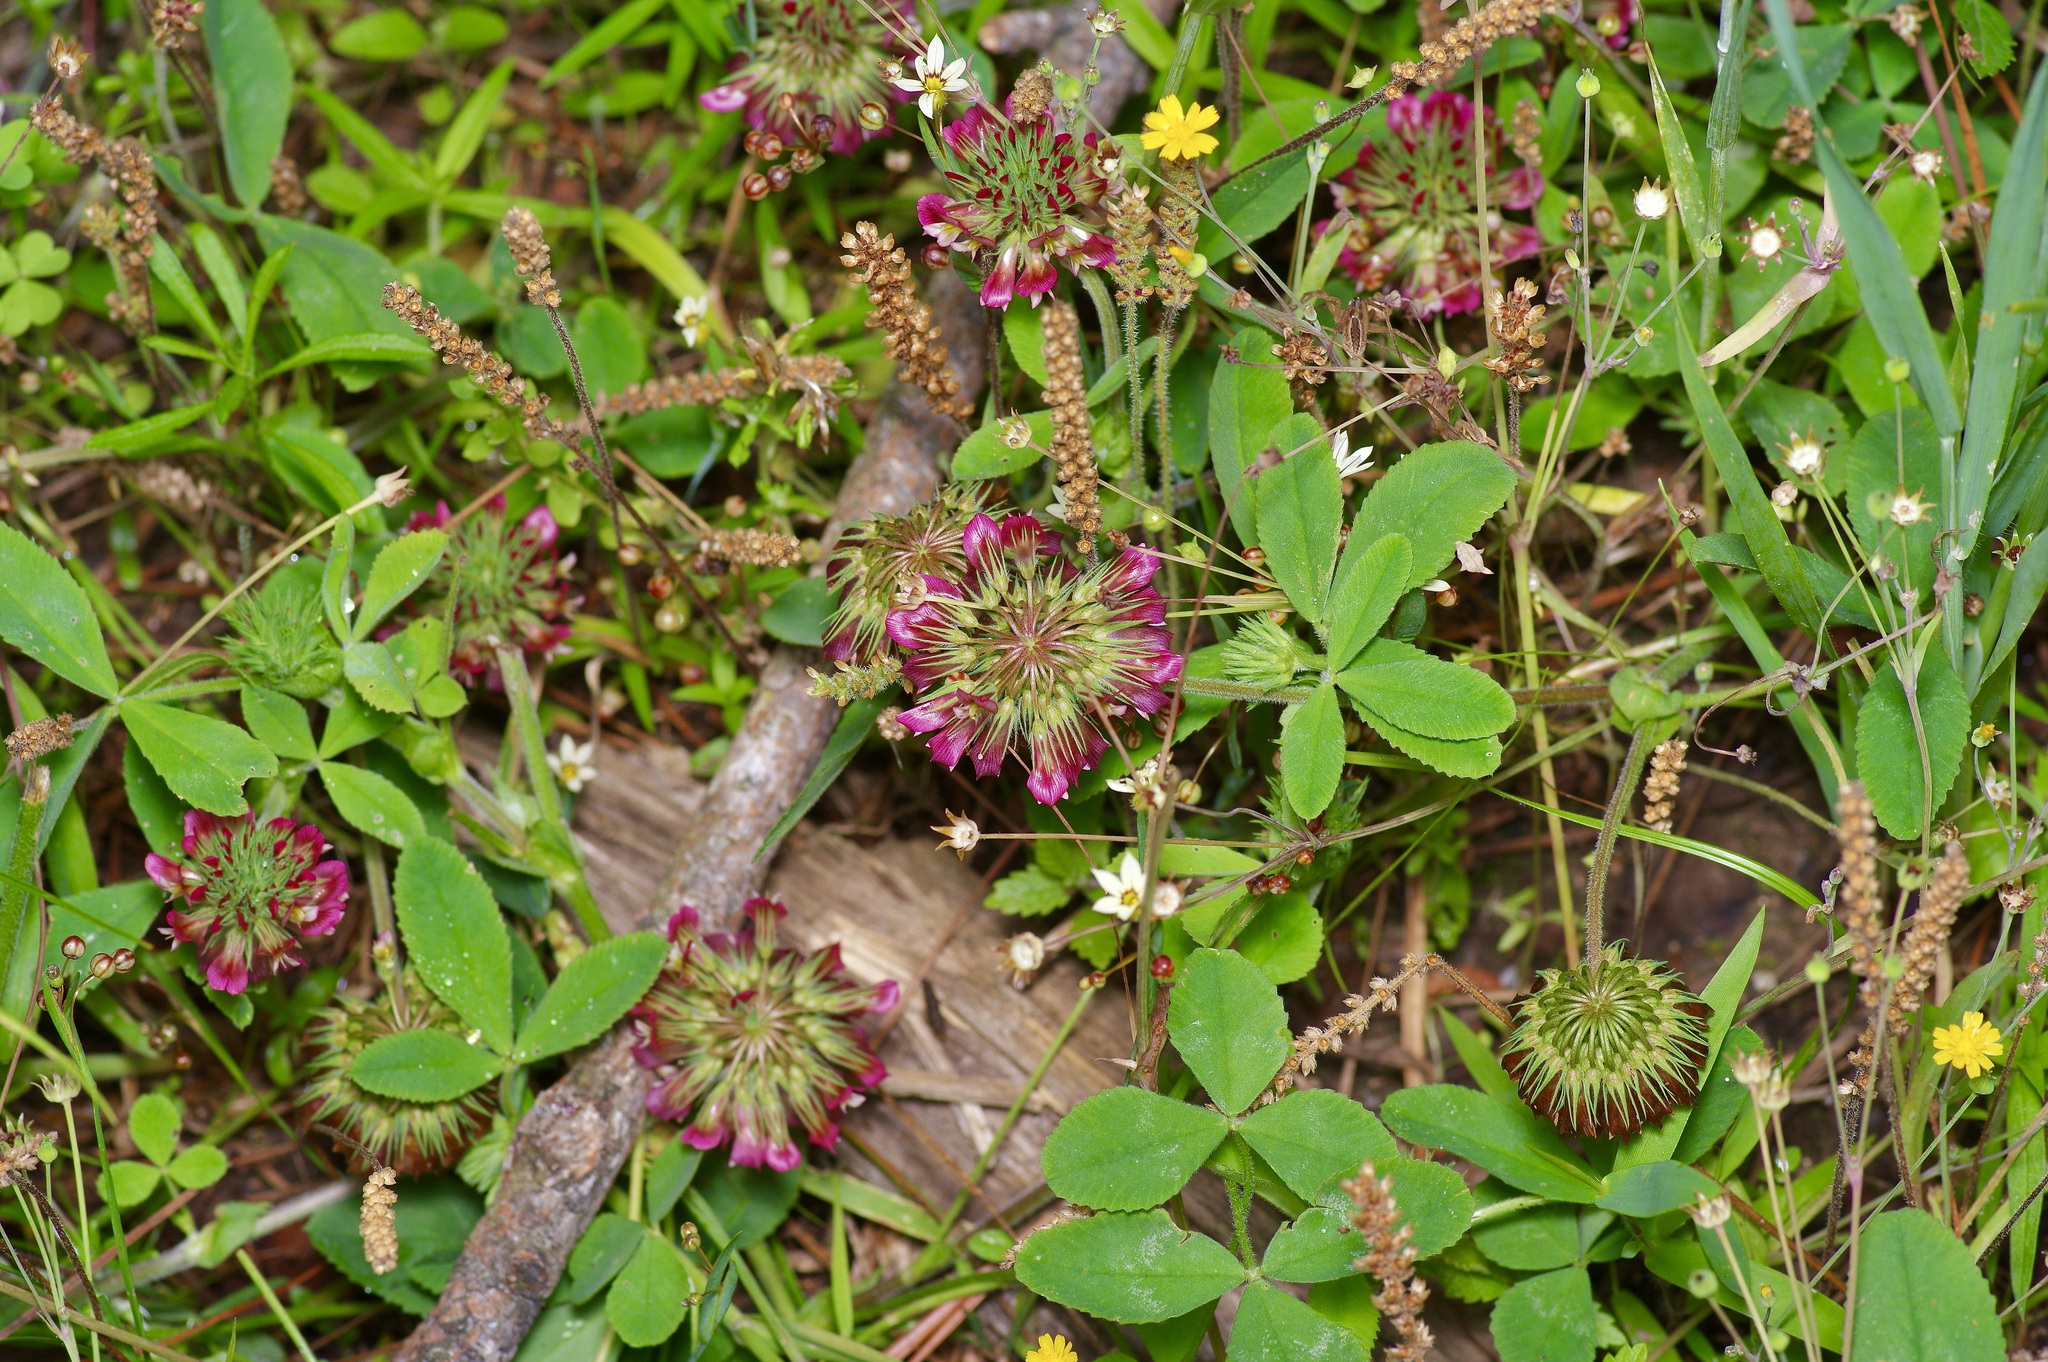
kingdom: Plantae
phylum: Tracheophyta
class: Magnoliopsida
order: Fabales
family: Fabaceae
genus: Trifolium
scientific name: Trifolium reflexum
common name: Buffalo clover
